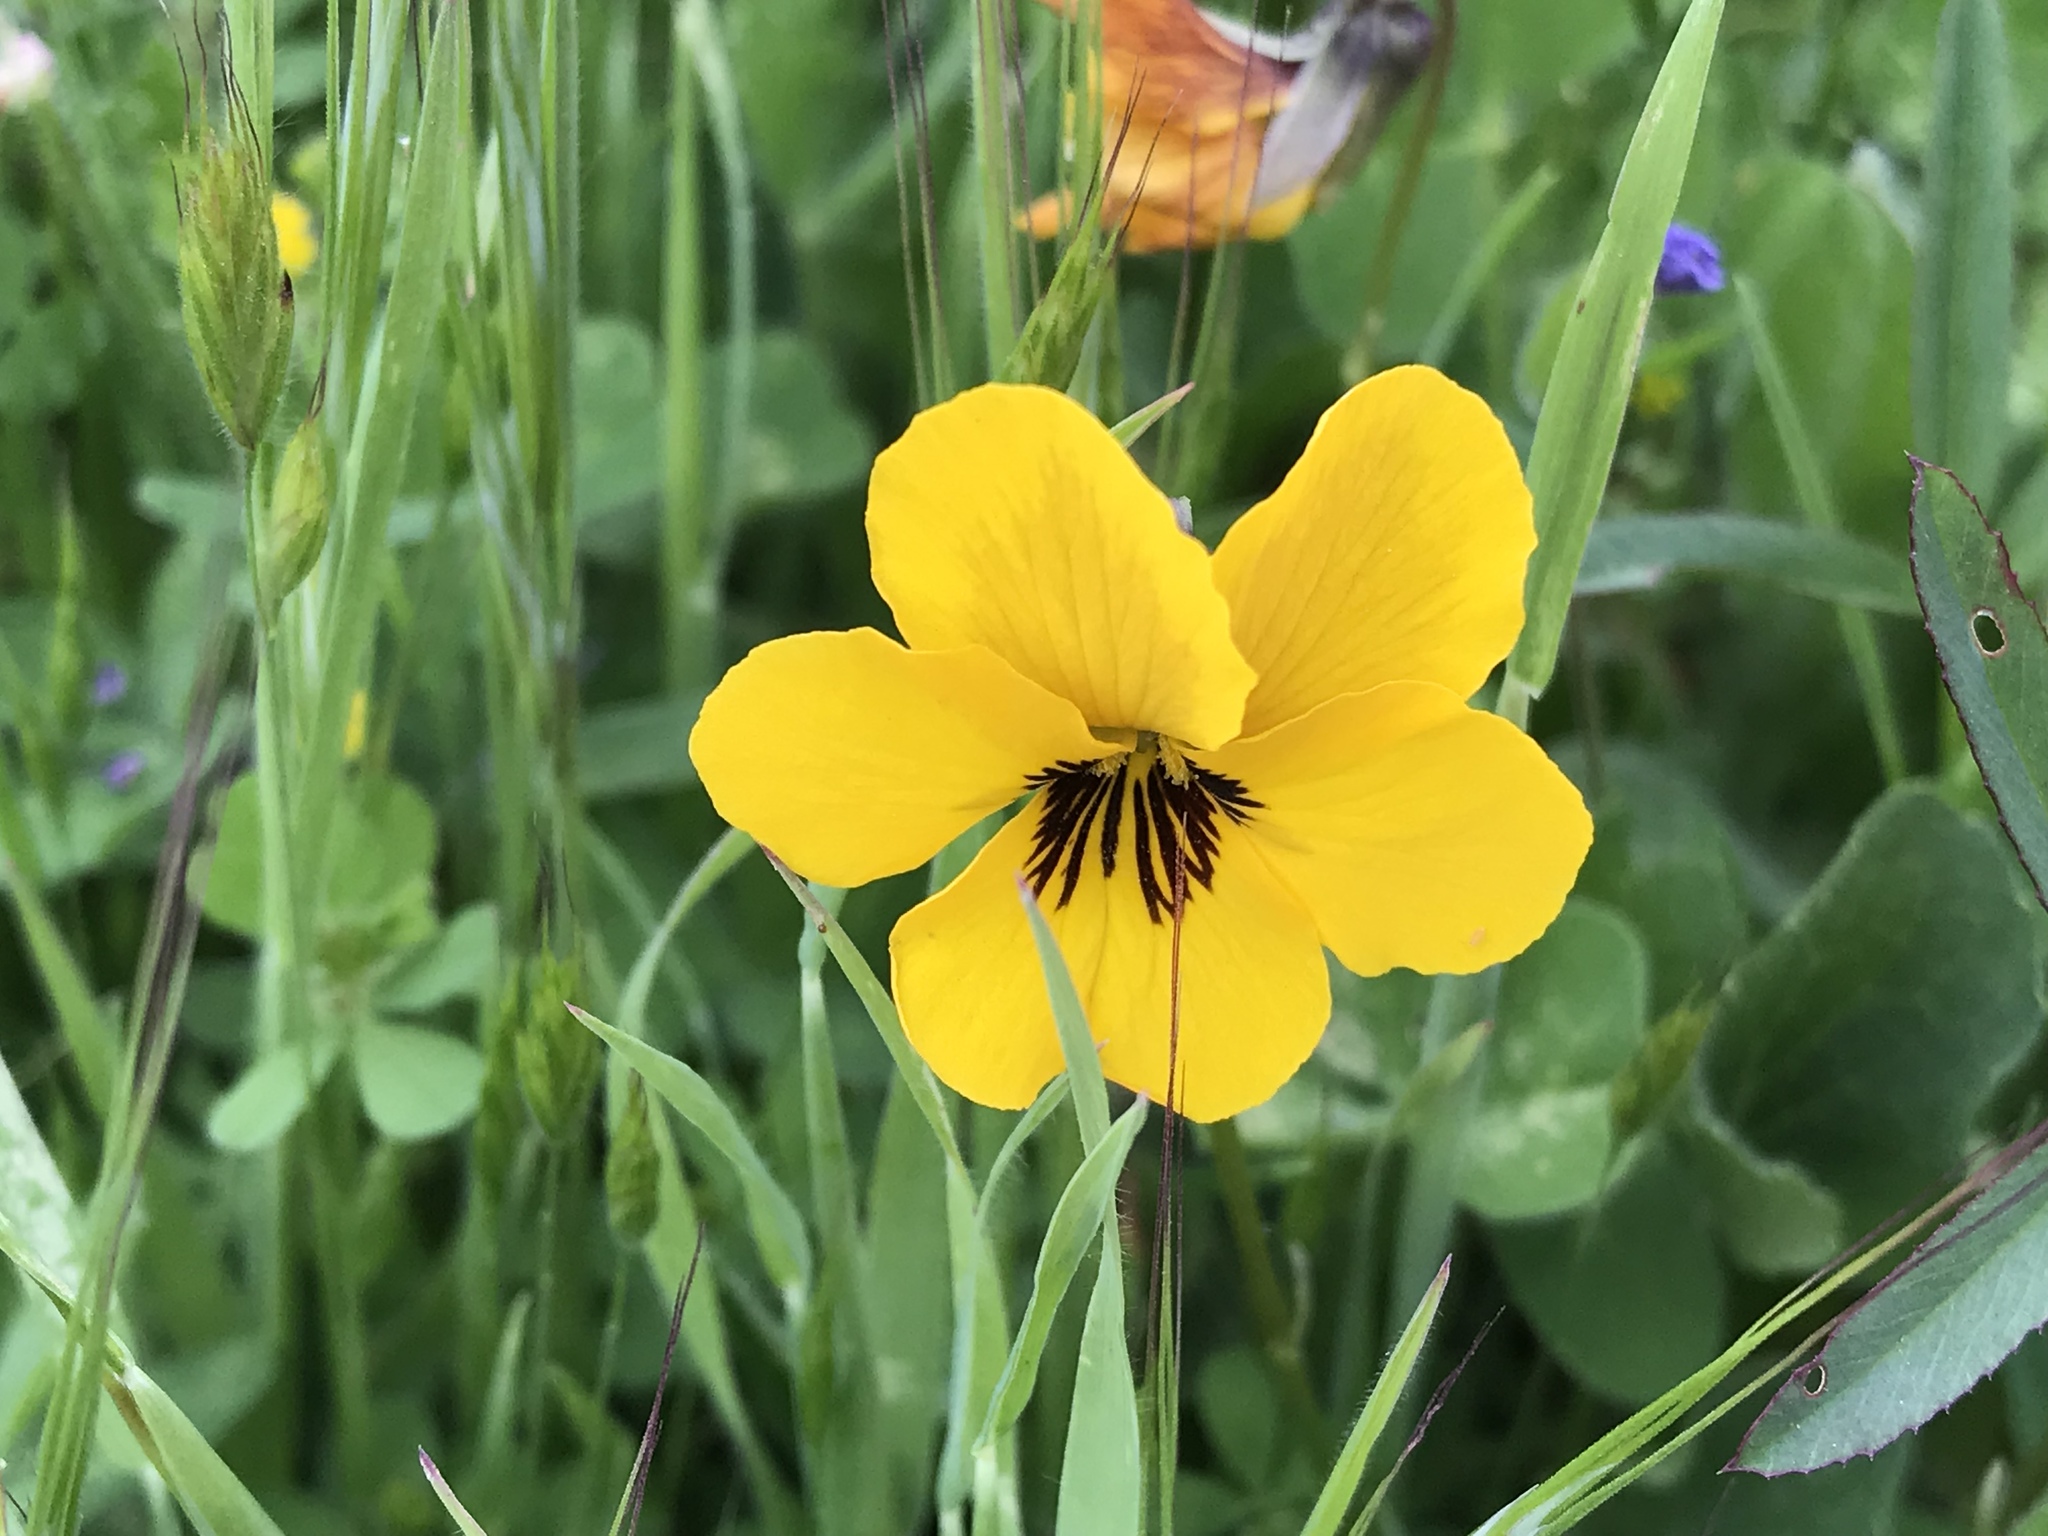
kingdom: Plantae
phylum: Tracheophyta
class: Magnoliopsida
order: Malpighiales
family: Violaceae
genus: Viola
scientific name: Viola pedunculata
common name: California golden violet
